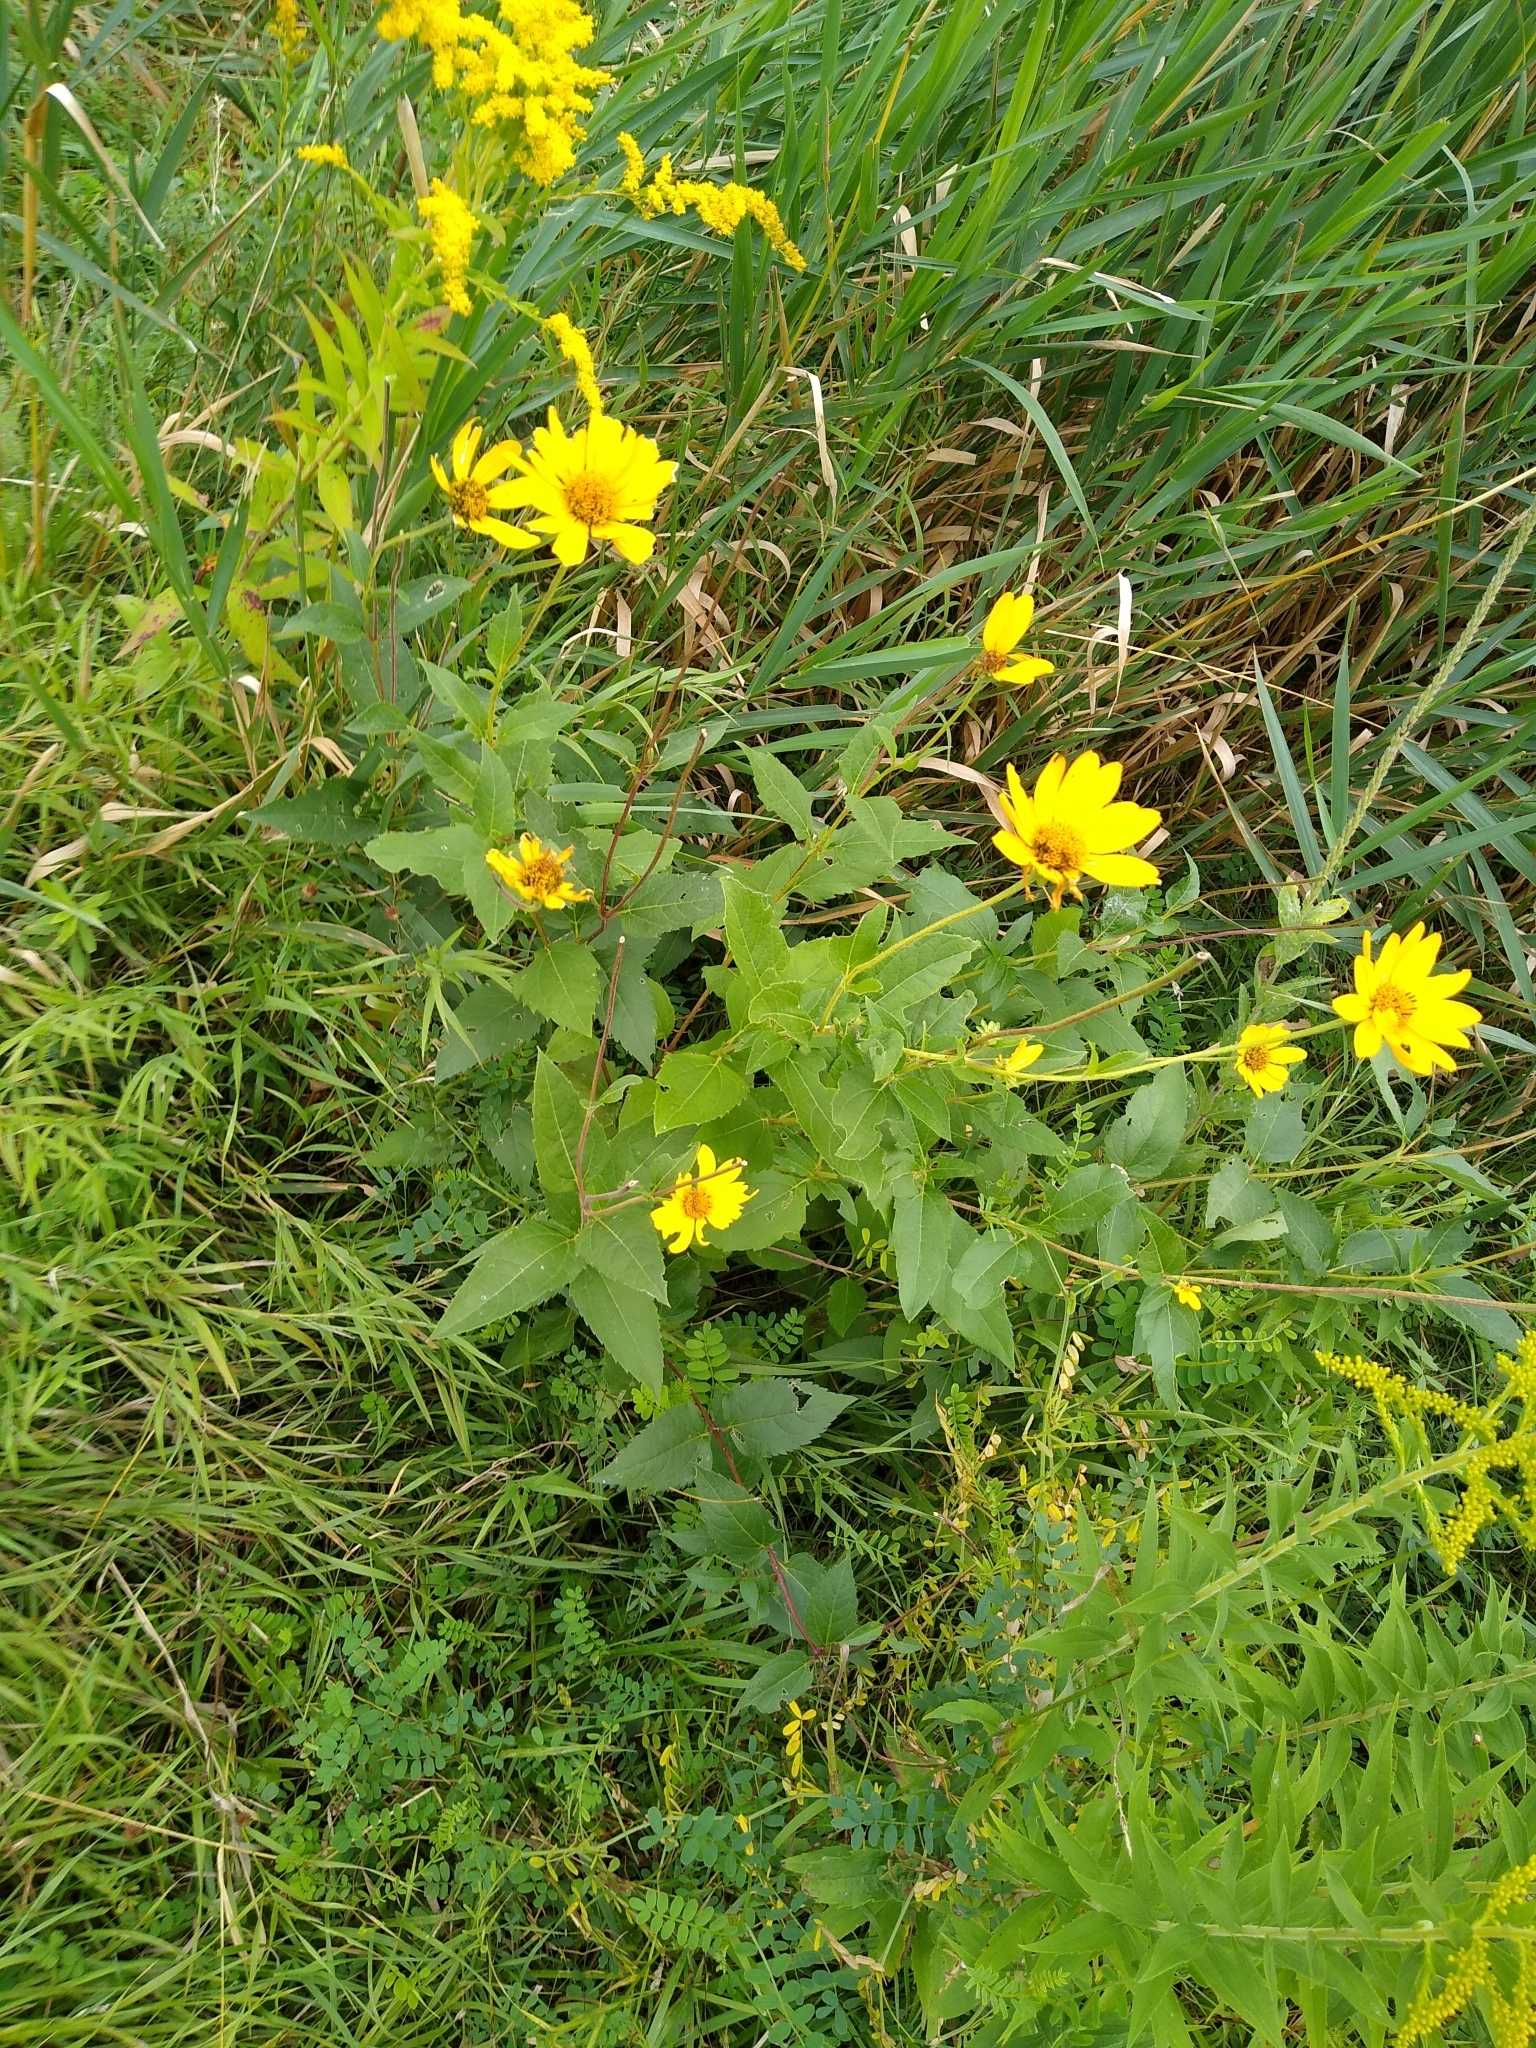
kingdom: Plantae
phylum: Tracheophyta
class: Magnoliopsida
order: Asterales
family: Asteraceae
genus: Heliopsis
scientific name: Heliopsis helianthoides
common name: False sunflower
